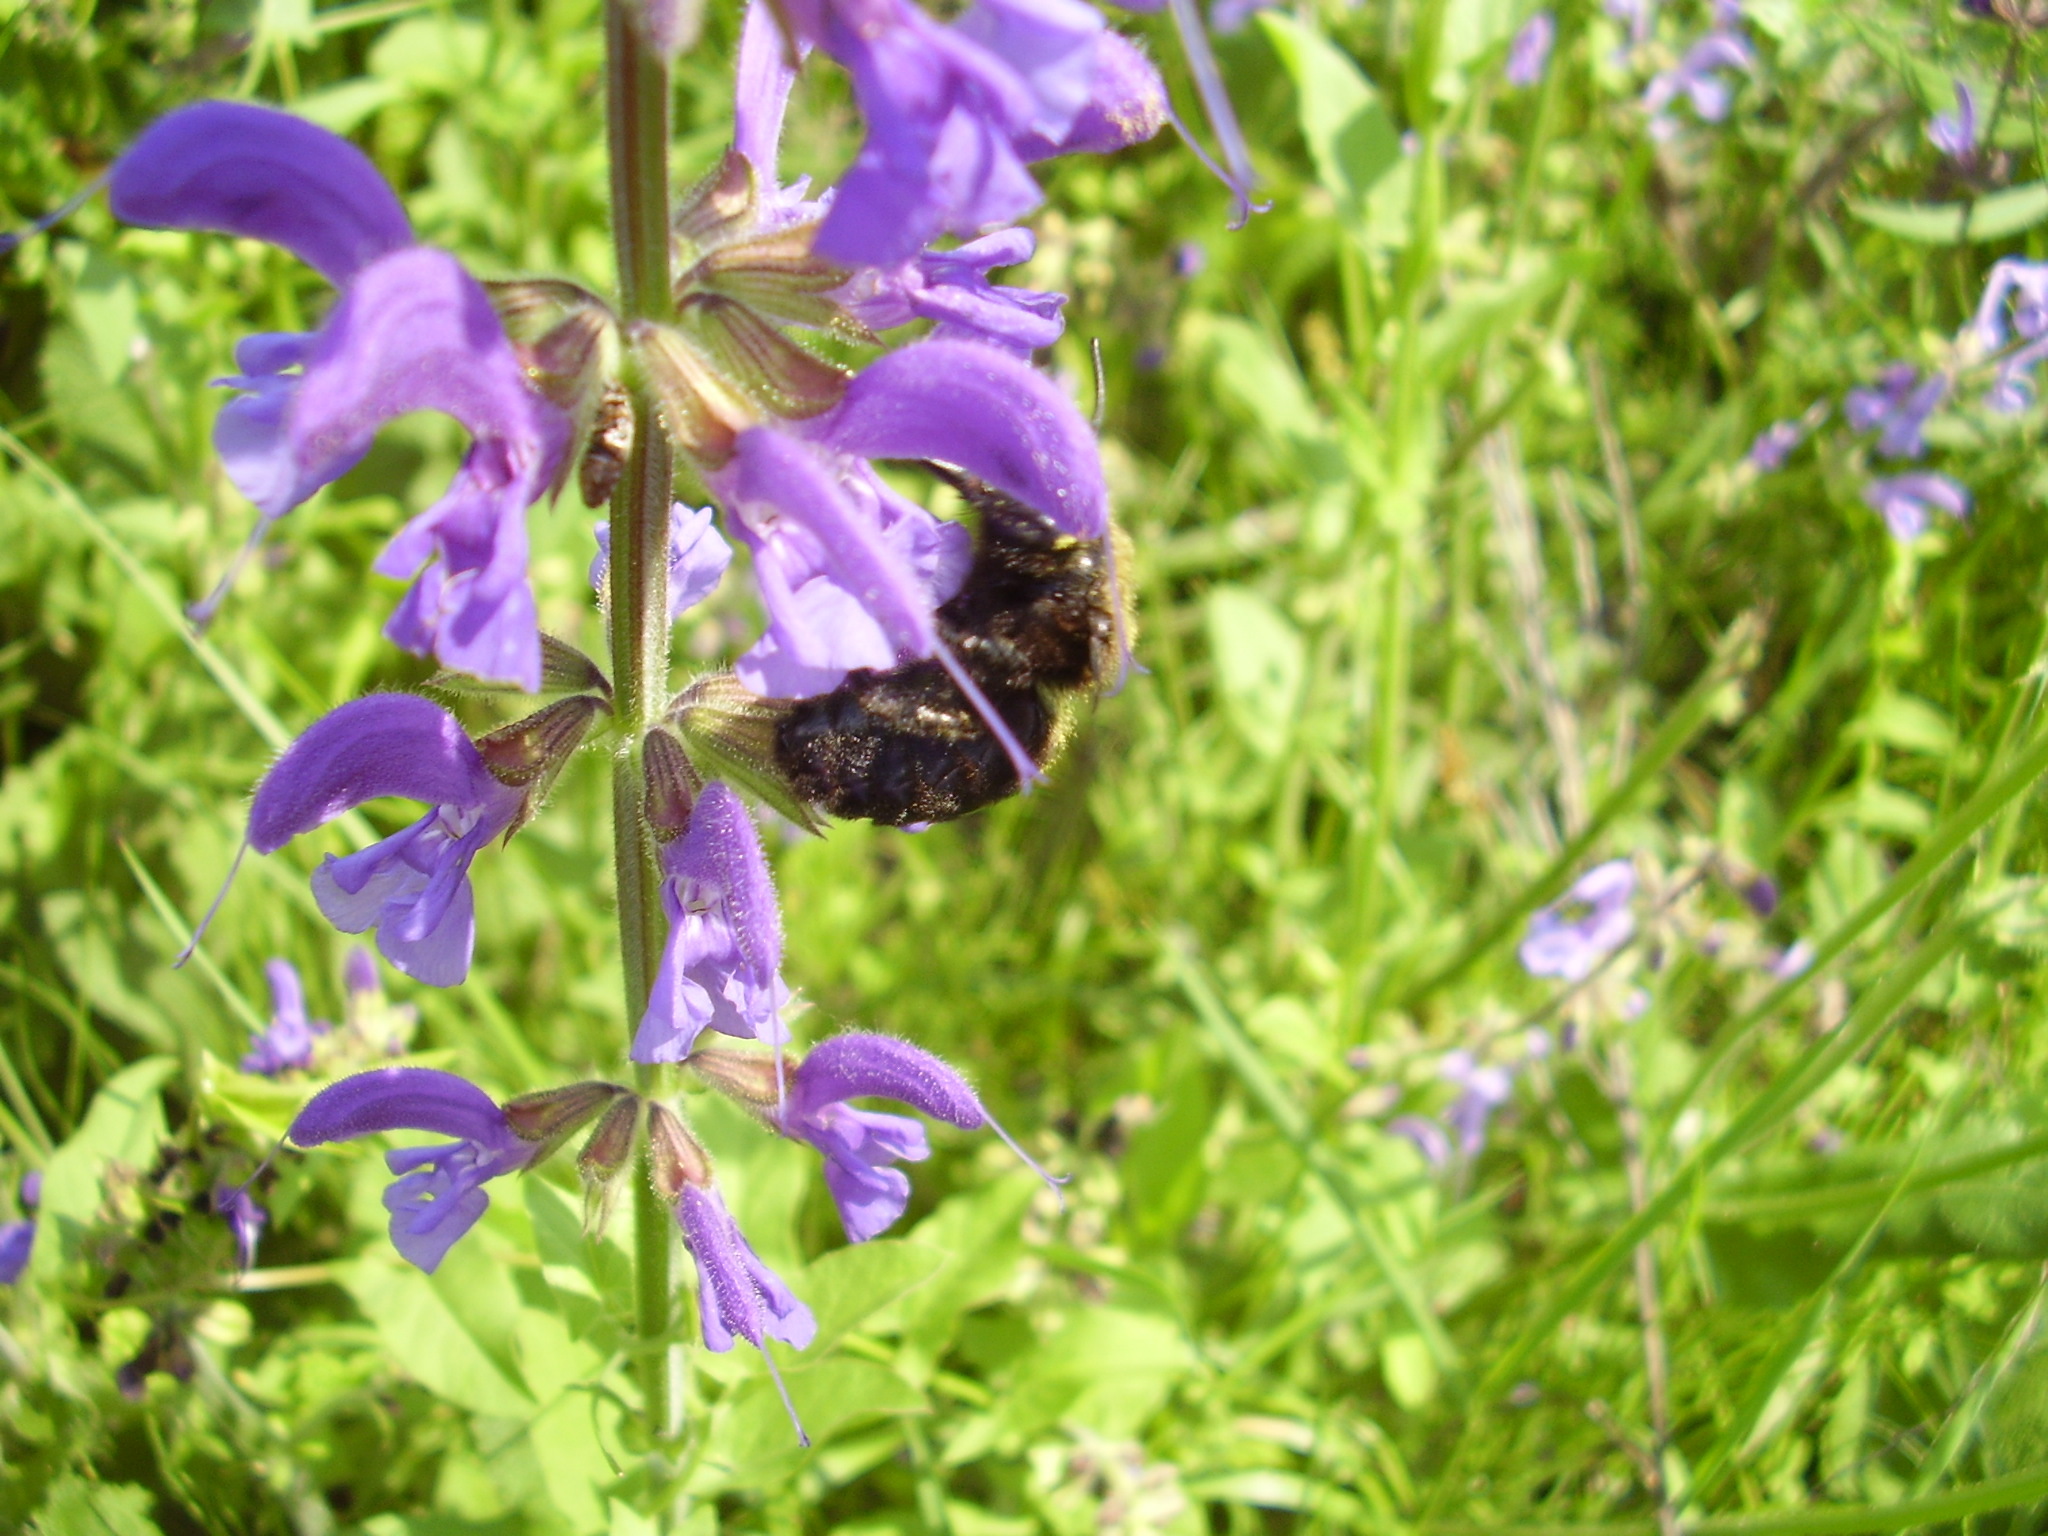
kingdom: Plantae
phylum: Tracheophyta
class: Magnoliopsida
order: Lamiales
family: Lamiaceae
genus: Salvia
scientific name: Salvia pratensis
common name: Meadow sage
